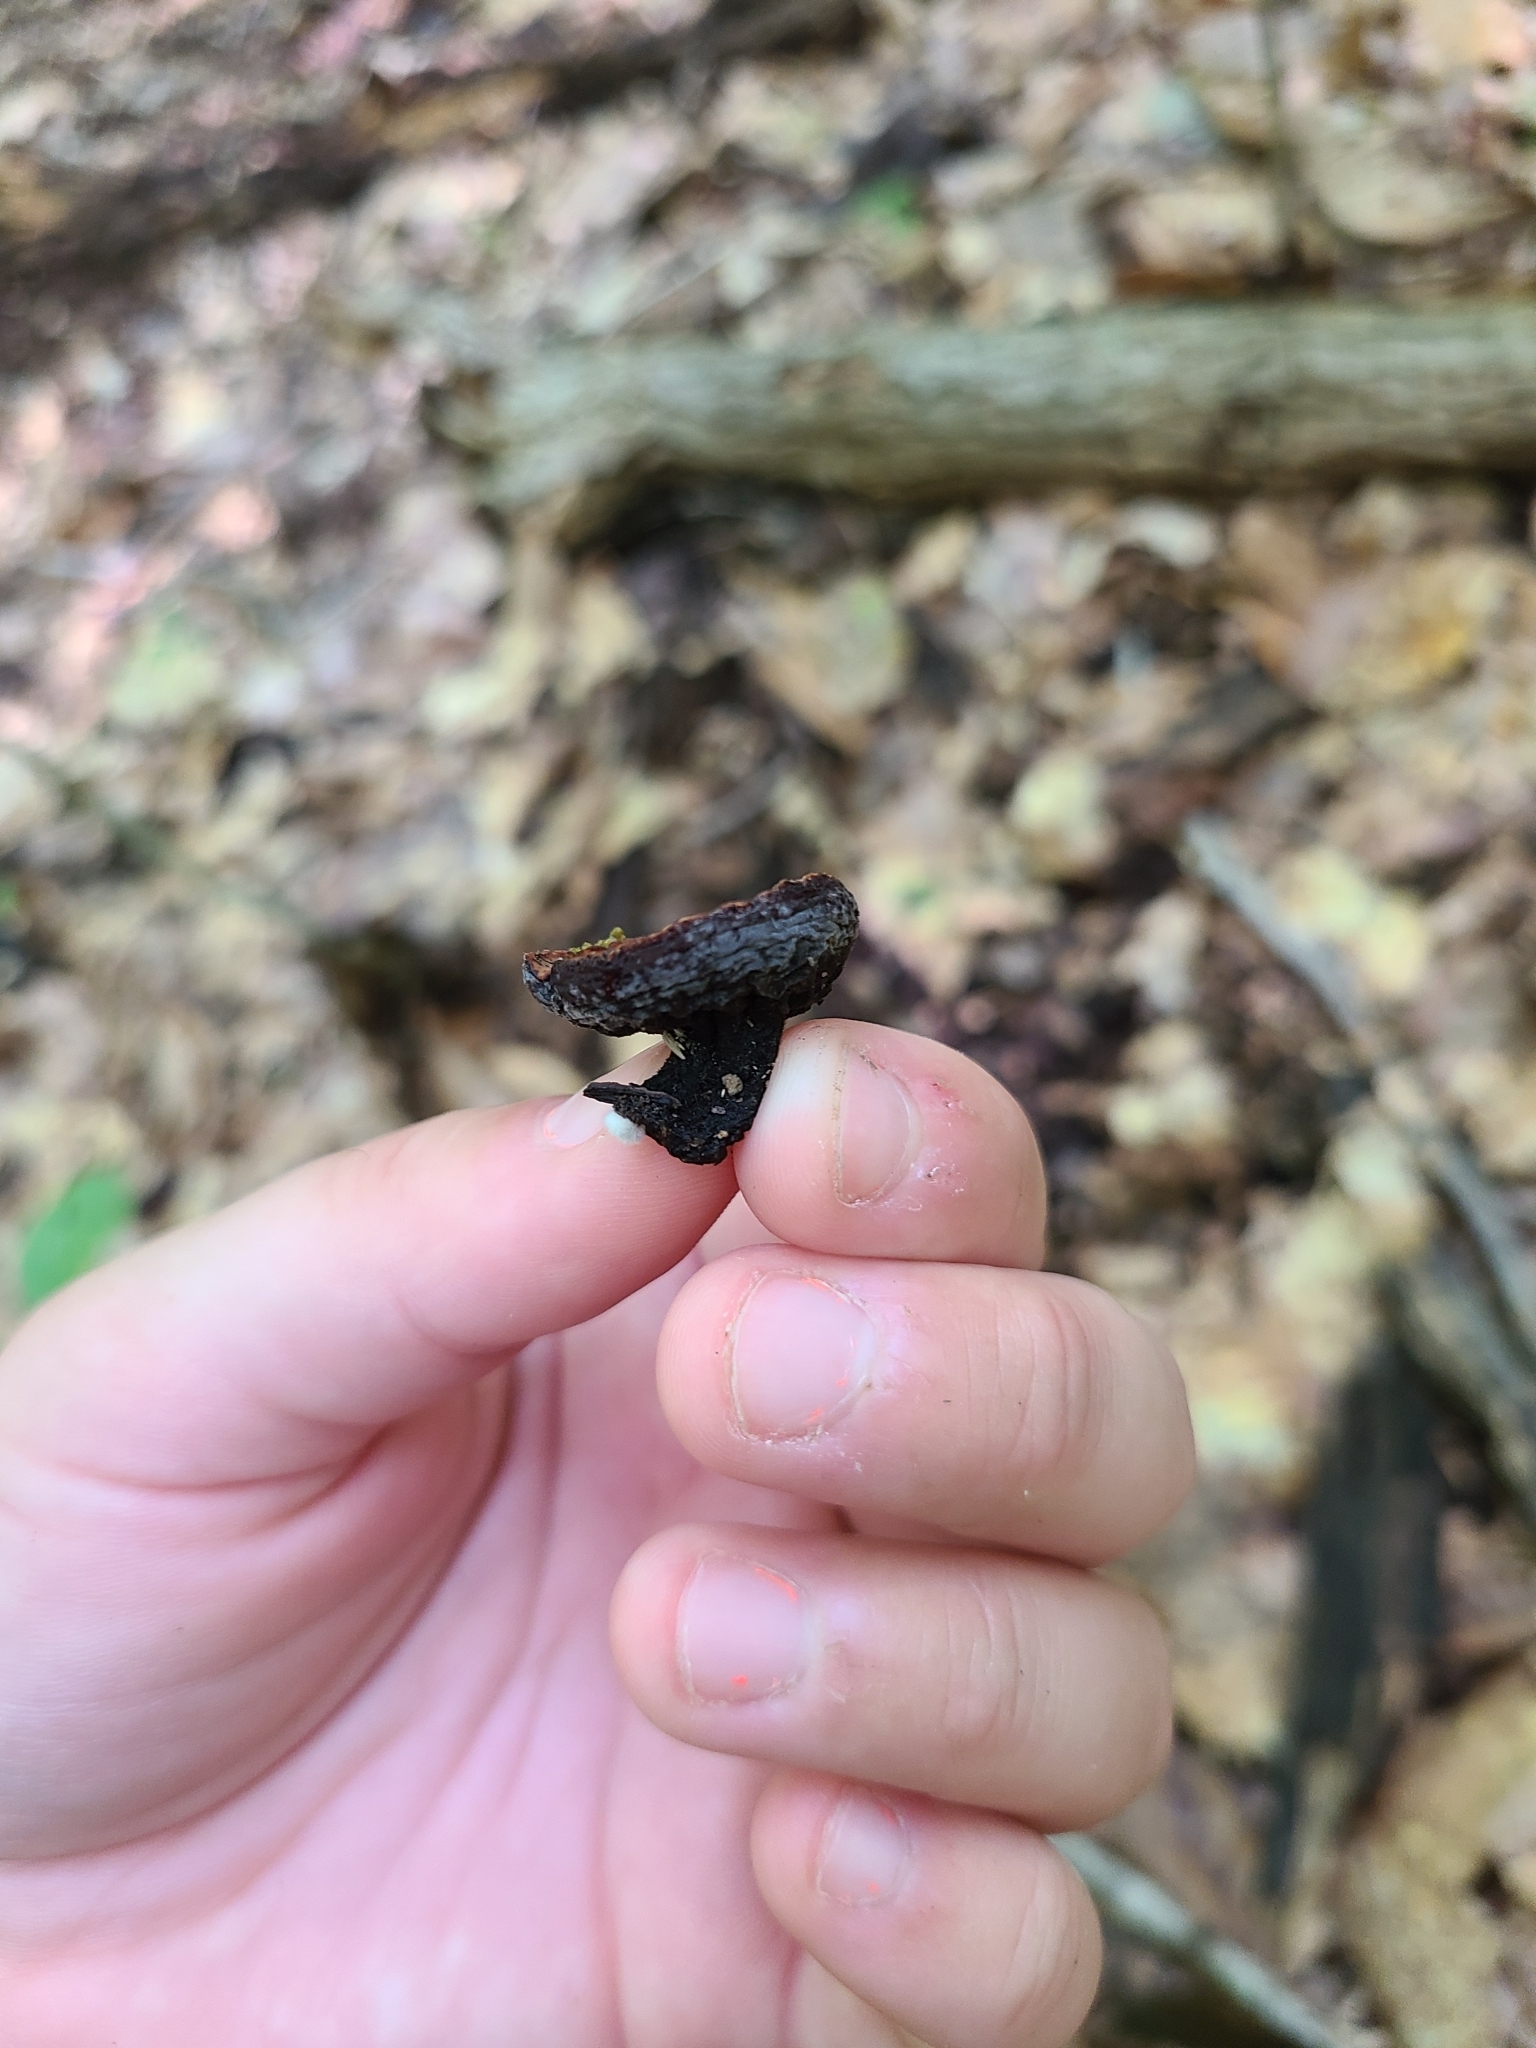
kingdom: Fungi
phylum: Ascomycota
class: Pezizomycetes
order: Pezizales
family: Sarcosomataceae
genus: Galiella
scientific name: Galiella rufa
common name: Hairy rubber cup
